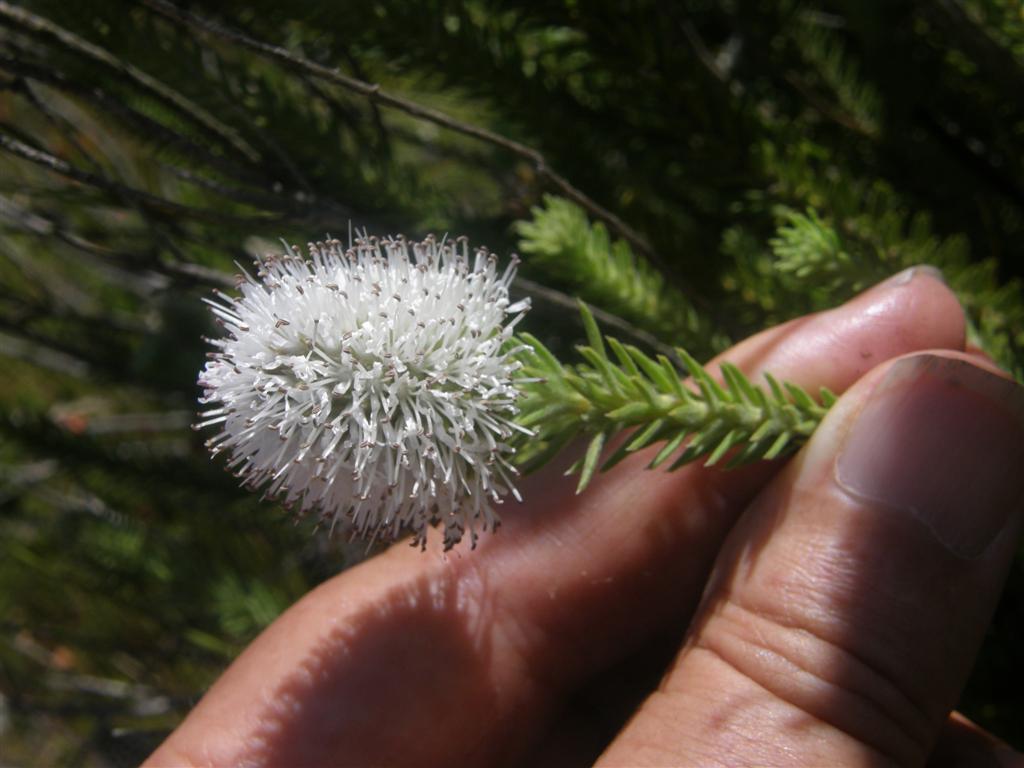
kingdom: Plantae
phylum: Tracheophyta
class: Magnoliopsida
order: Lamiales
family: Stilbaceae
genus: Stilbe
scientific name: Stilbe albiflora
